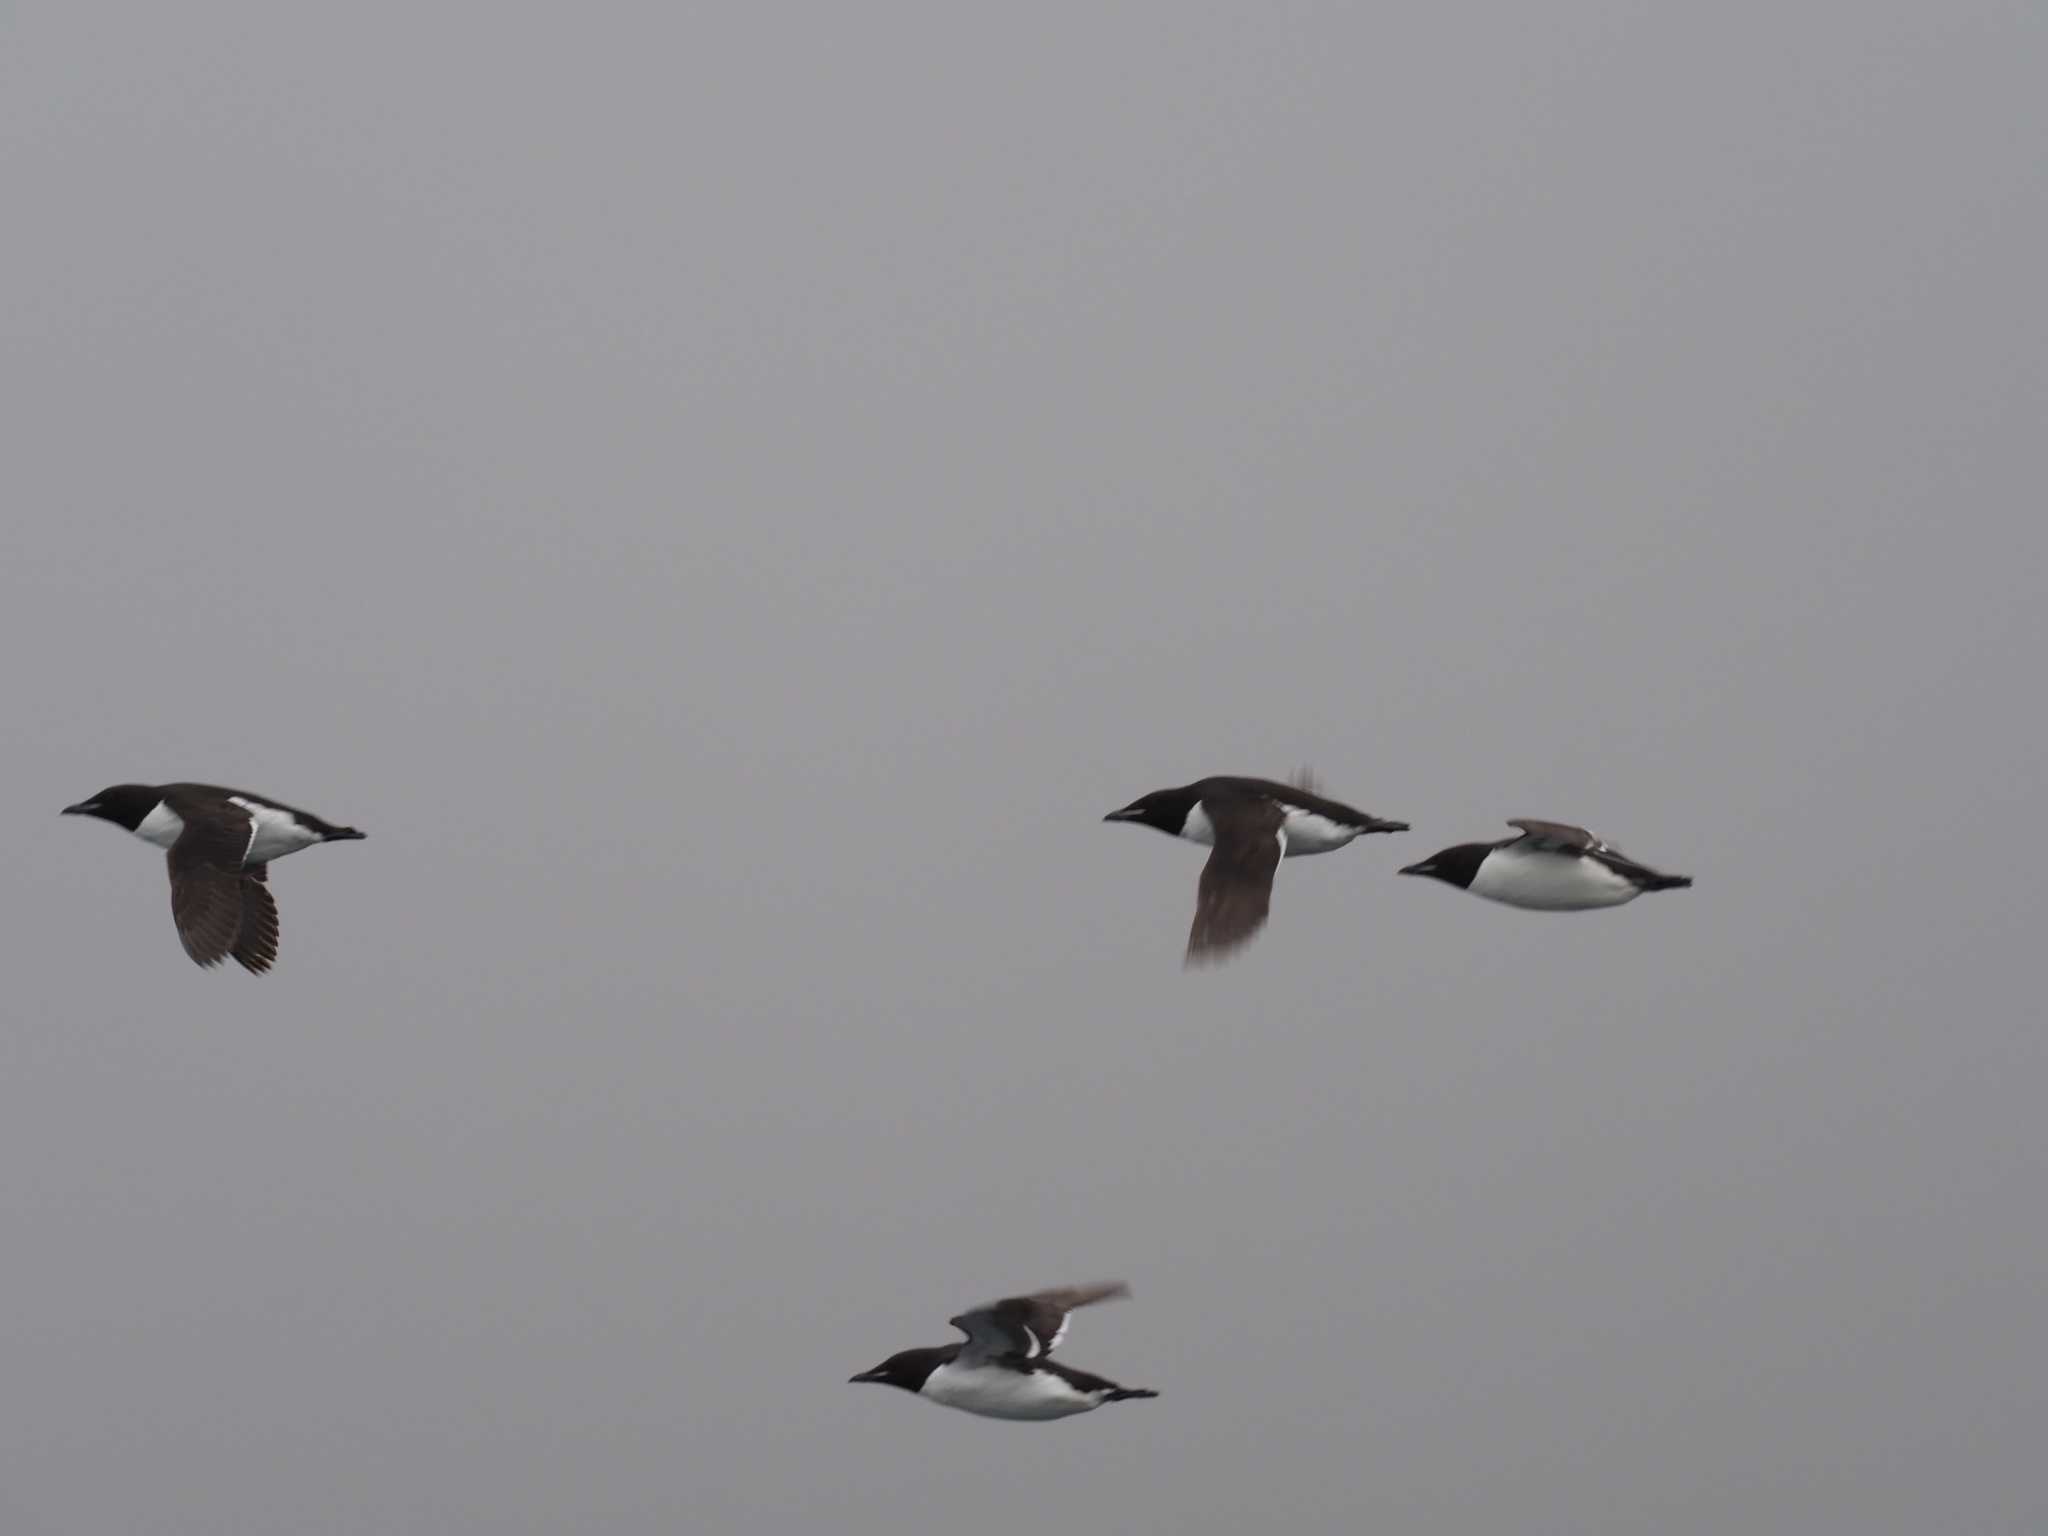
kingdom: Animalia
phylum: Chordata
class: Aves
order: Charadriiformes
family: Alcidae
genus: Uria
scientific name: Uria lomvia
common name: Thick-billed murre
